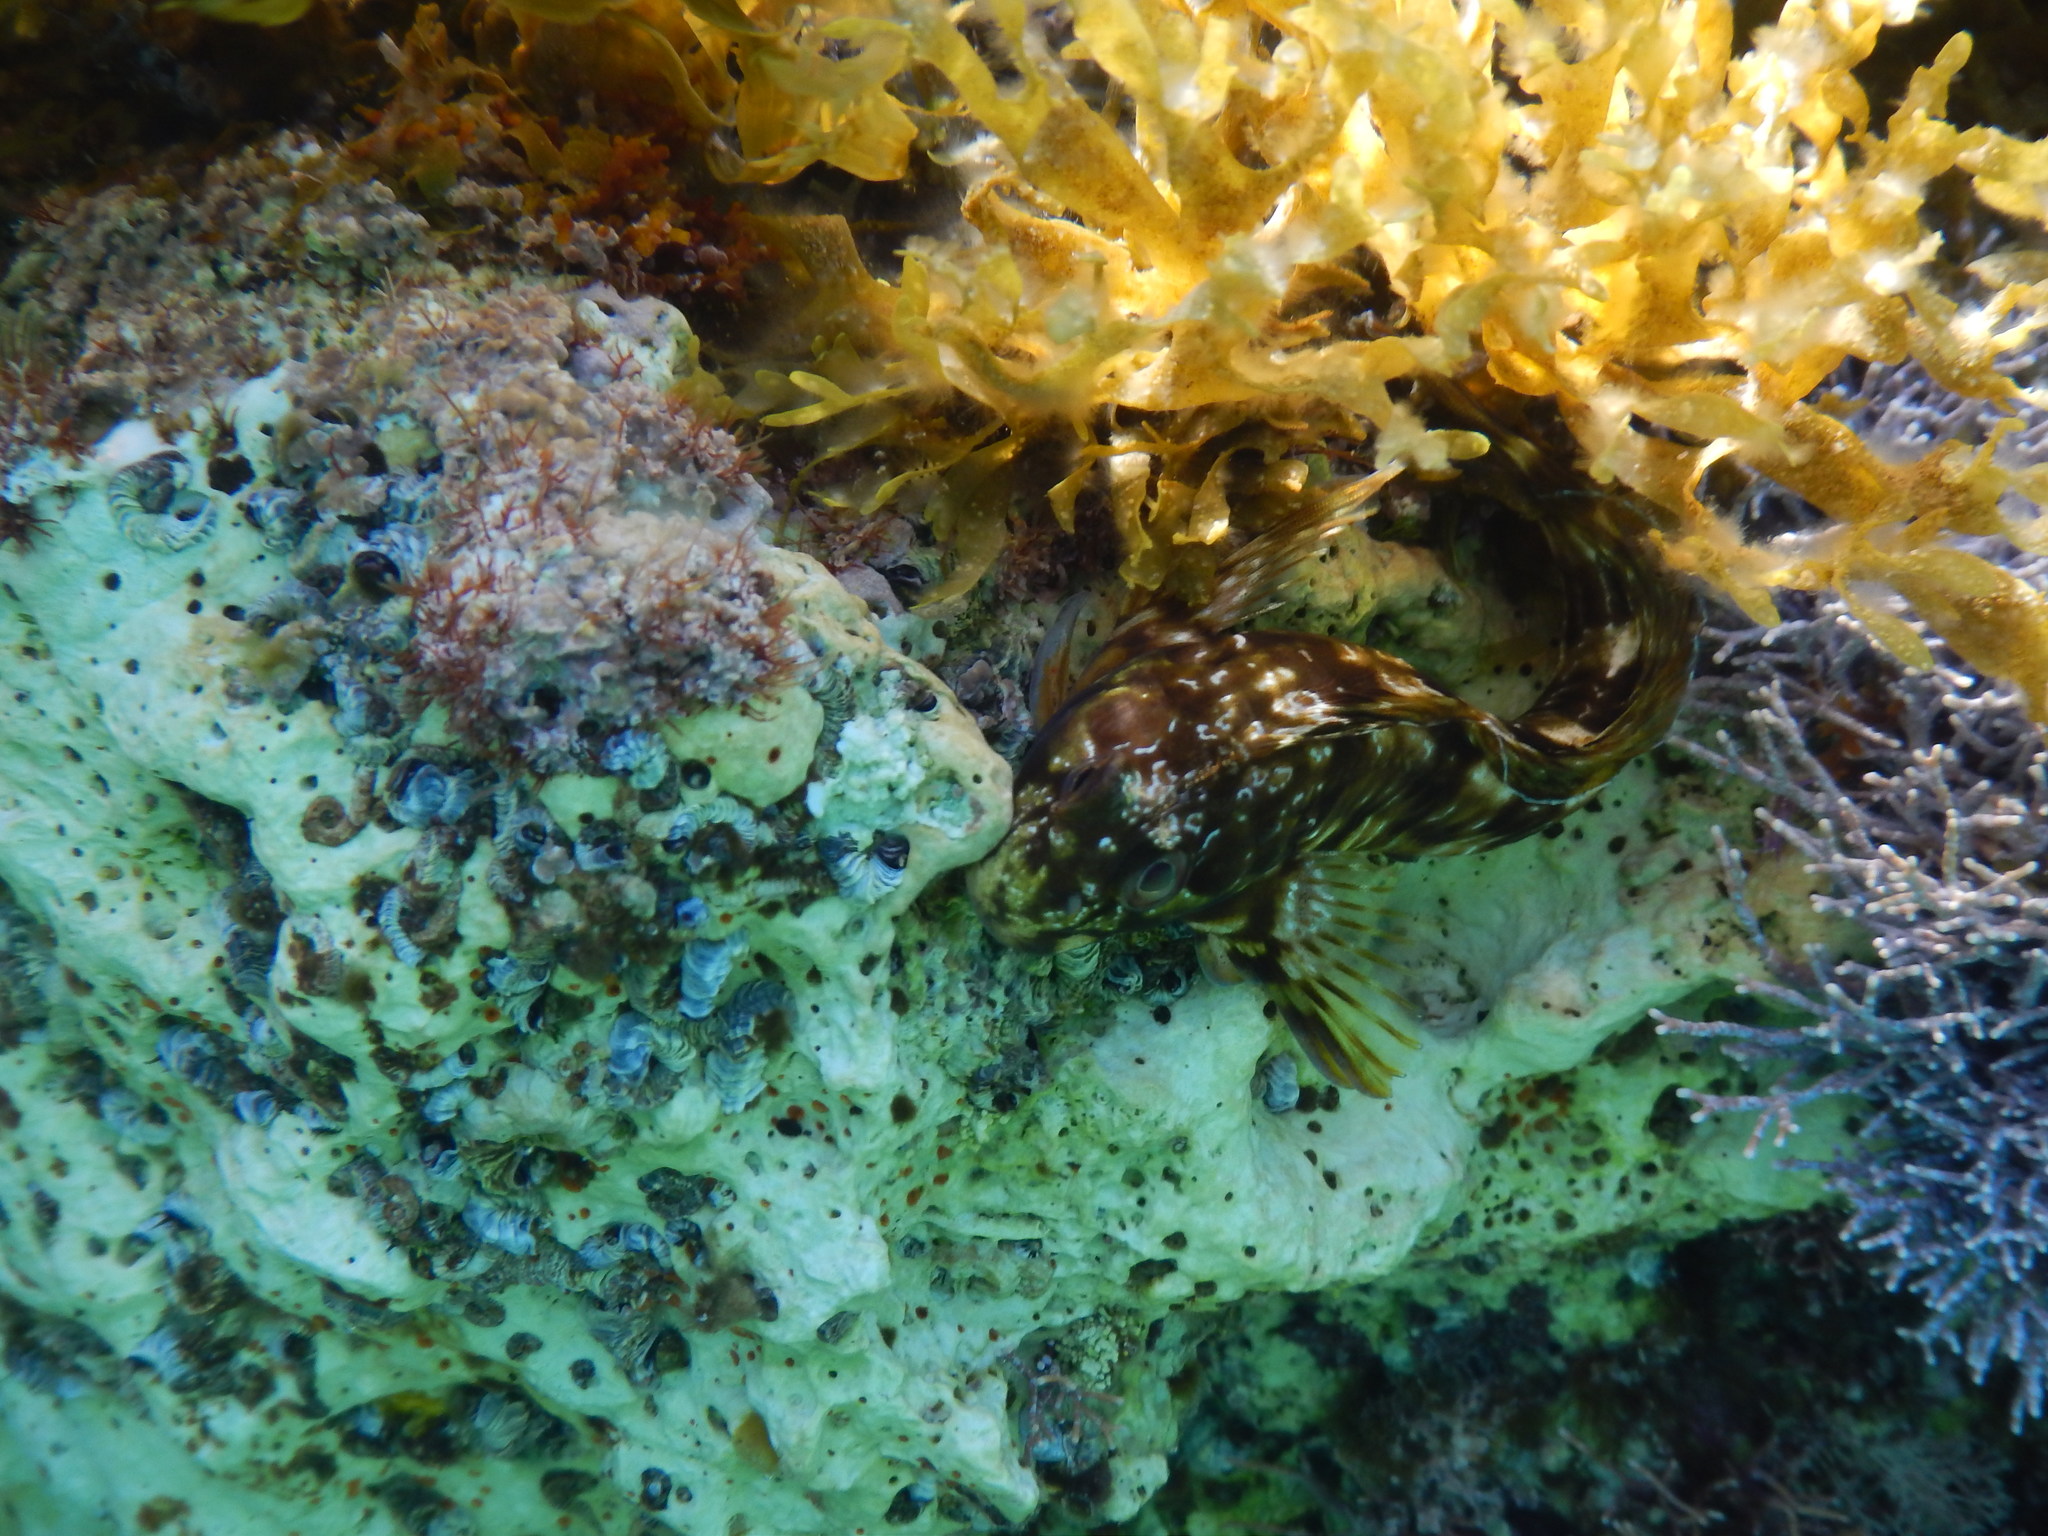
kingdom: Animalia
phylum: Chordata
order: Perciformes
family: Blenniidae
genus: Scartella
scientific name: Scartella cristata
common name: Molly miller
